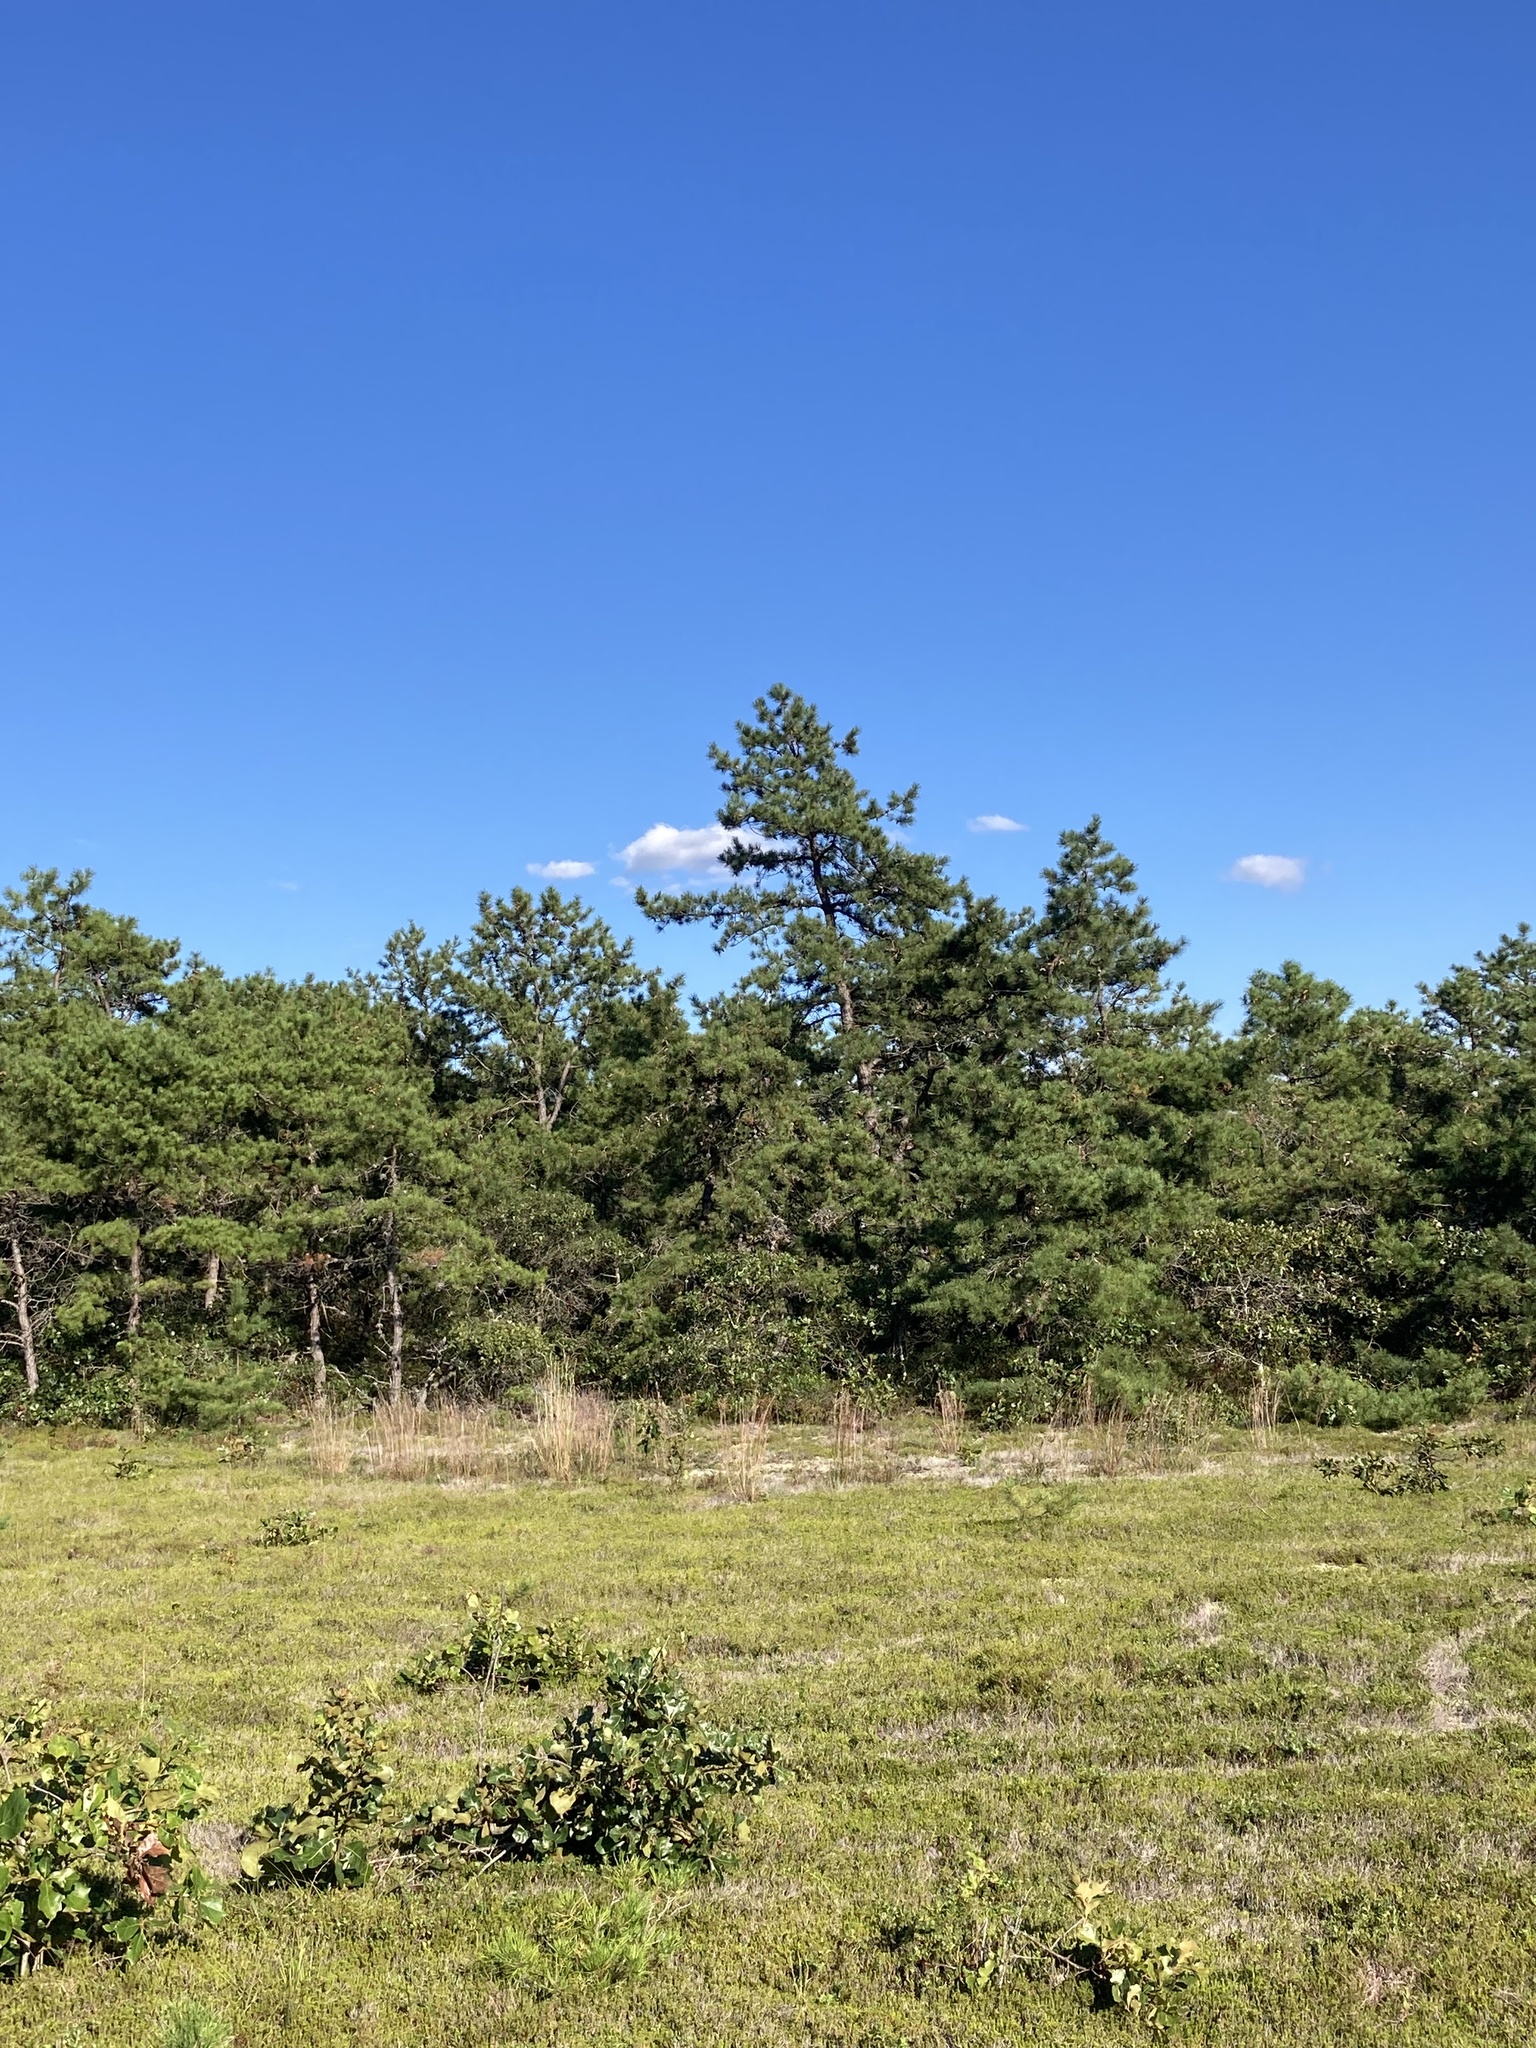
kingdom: Plantae
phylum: Tracheophyta
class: Magnoliopsida
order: Ericales
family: Ericaceae
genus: Corema
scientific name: Corema conradii
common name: Broom-crowberry
